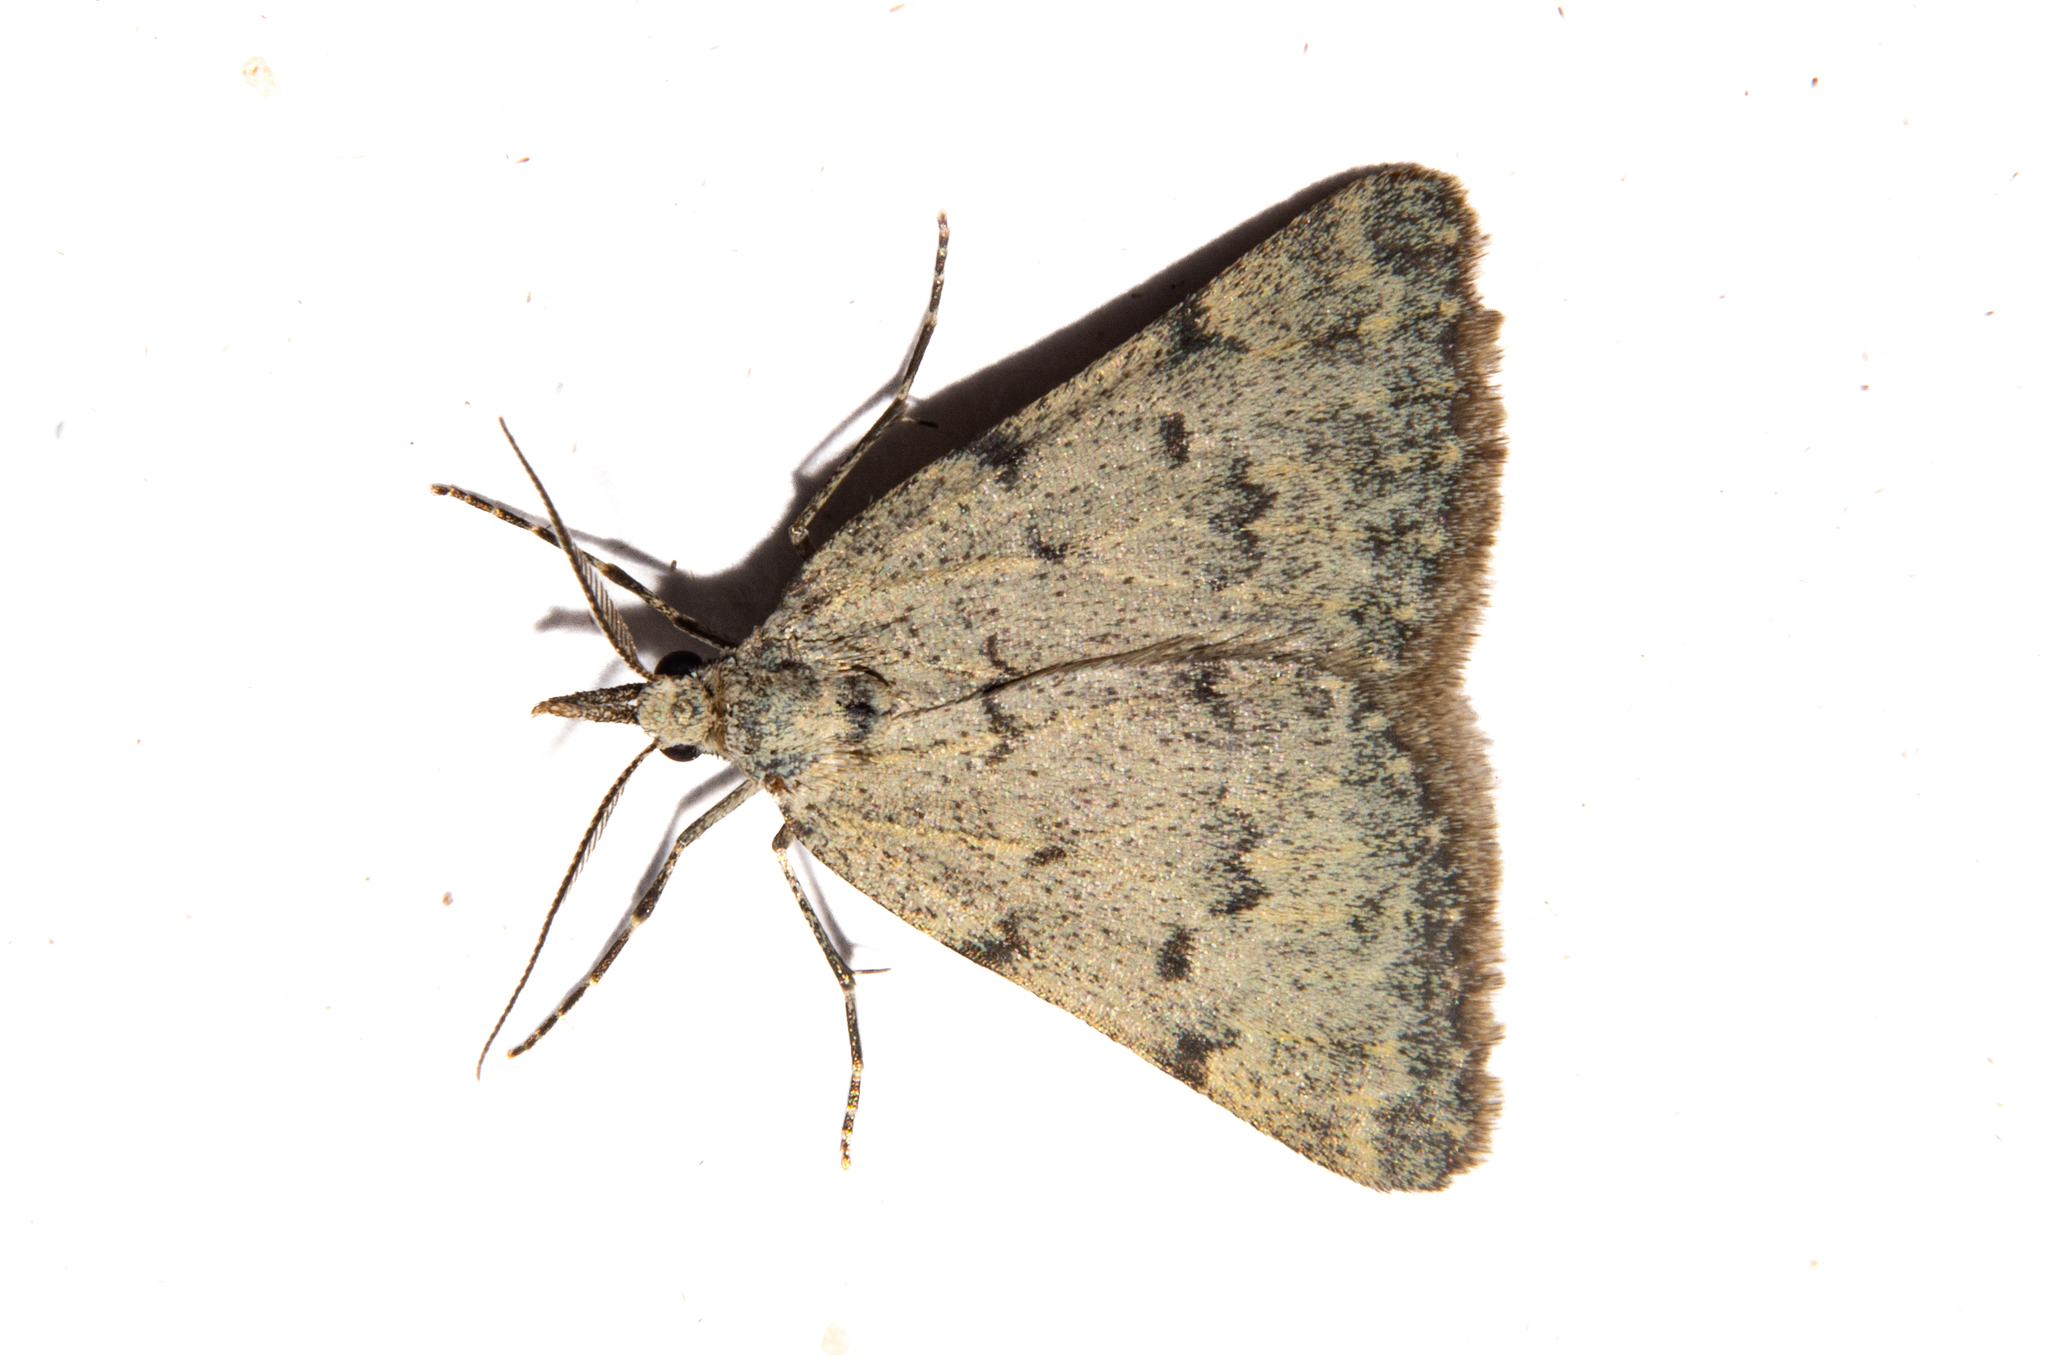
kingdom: Animalia
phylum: Arthropoda
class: Insecta
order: Lepidoptera
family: Geometridae
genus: Dichromodes
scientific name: Dichromodes sphaeriata
